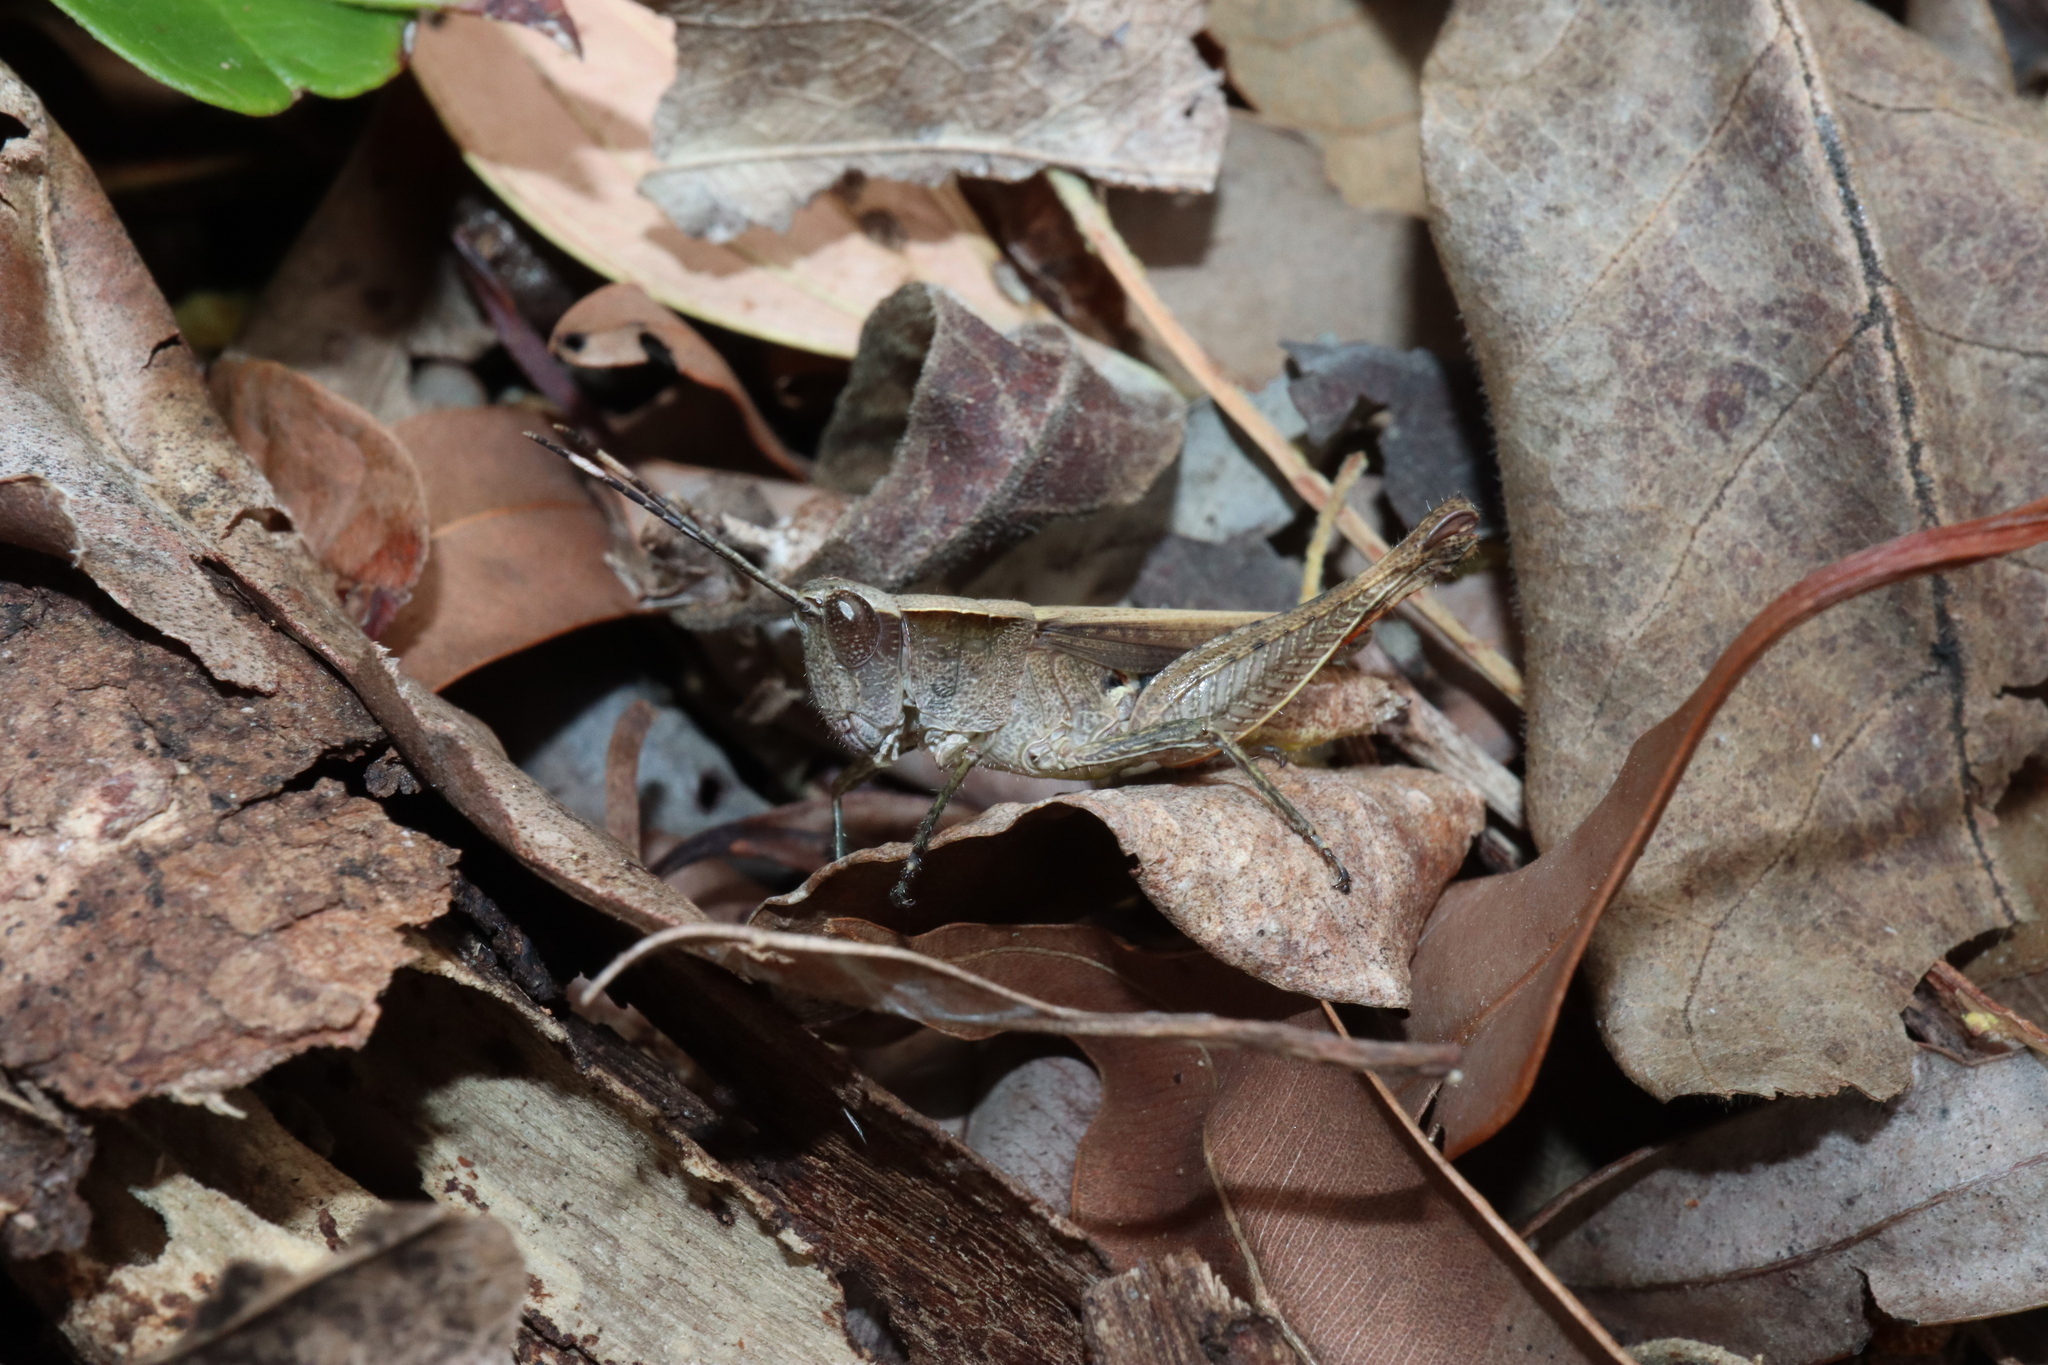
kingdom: Animalia
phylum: Arthropoda
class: Insecta
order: Orthoptera
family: Acrididae
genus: Rectitropis
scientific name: Rectitropis australis
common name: Queensland white-tips
